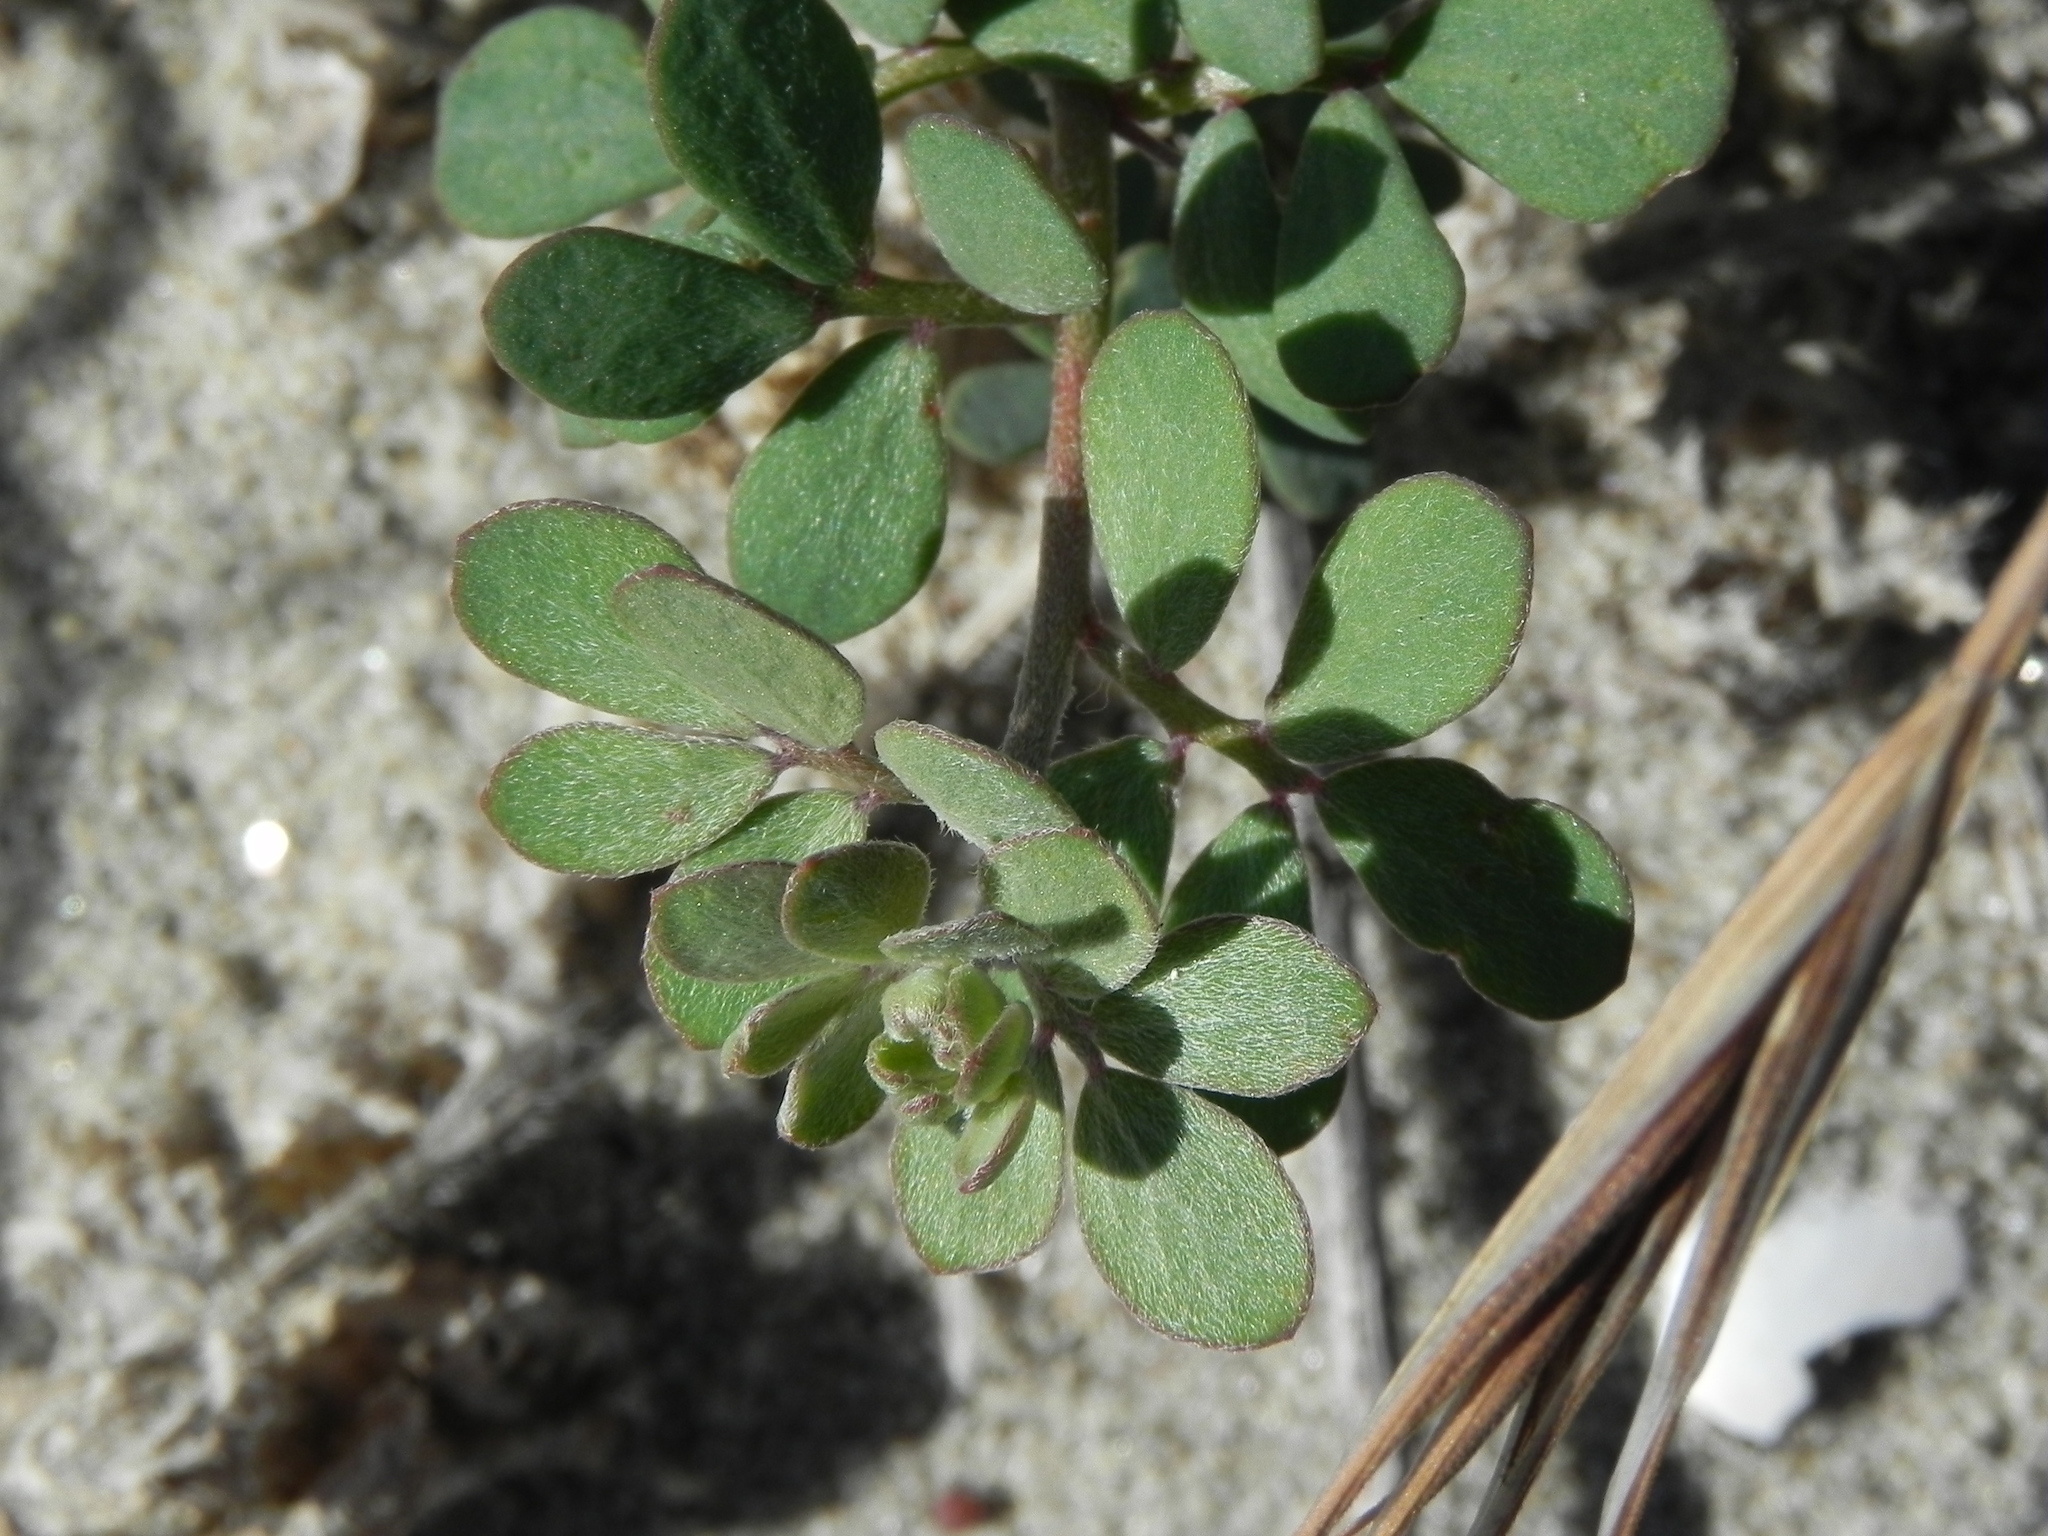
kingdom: Plantae
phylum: Tracheophyta
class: Magnoliopsida
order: Fabales
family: Fabaceae
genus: Acmispon
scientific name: Acmispon prostratus
